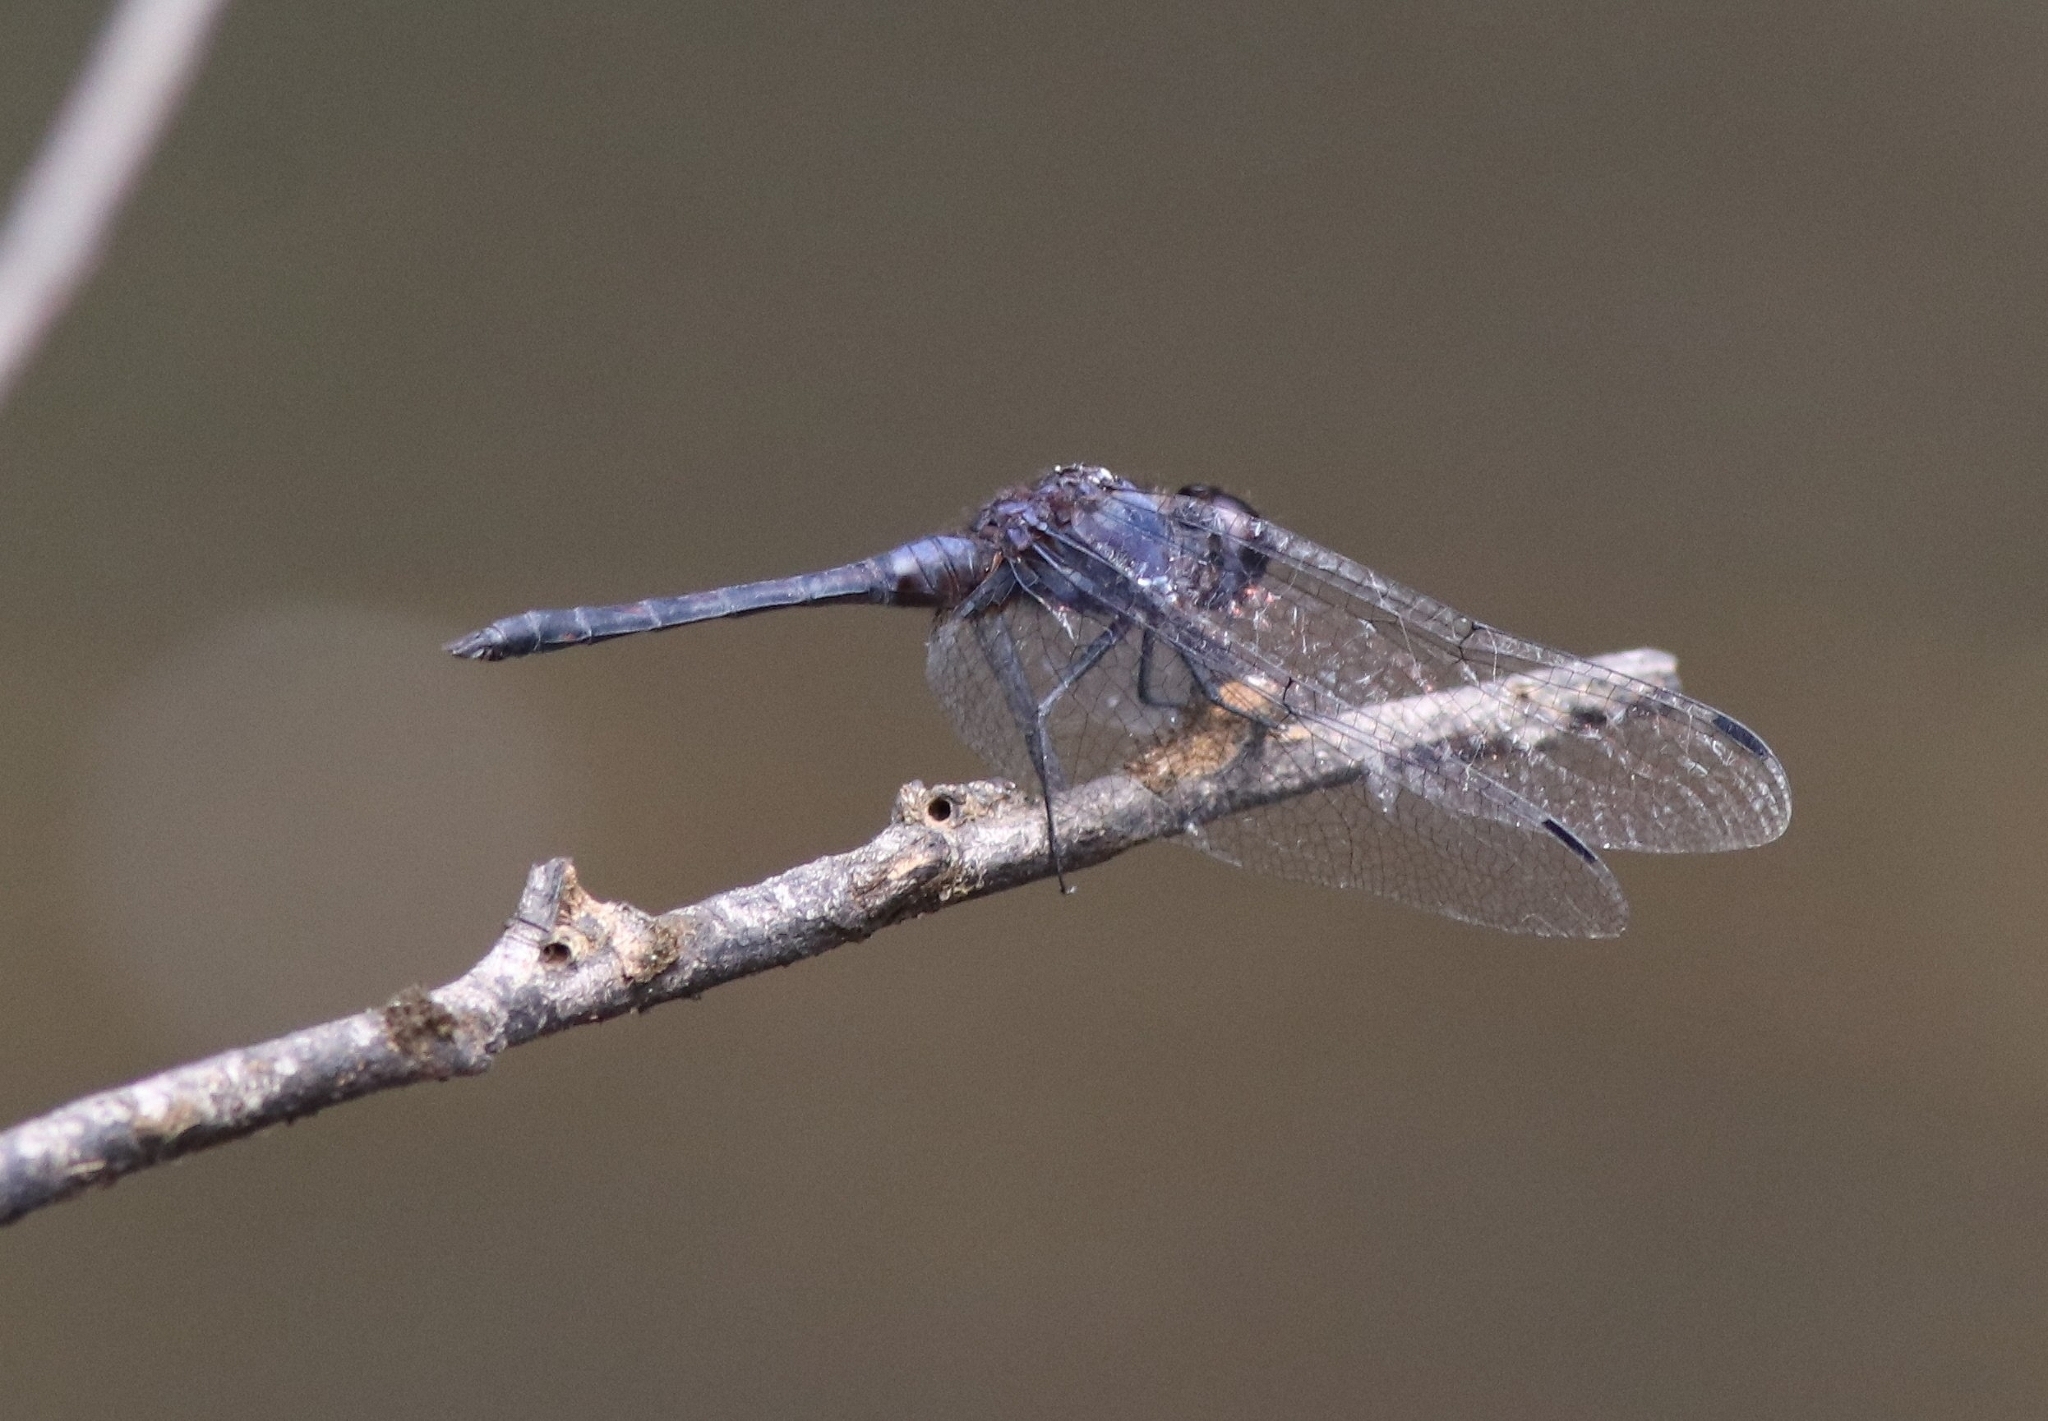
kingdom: Animalia
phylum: Arthropoda
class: Insecta
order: Odonata
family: Libellulidae
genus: Trithemis
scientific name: Trithemis festiva
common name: Indigo dropwing
